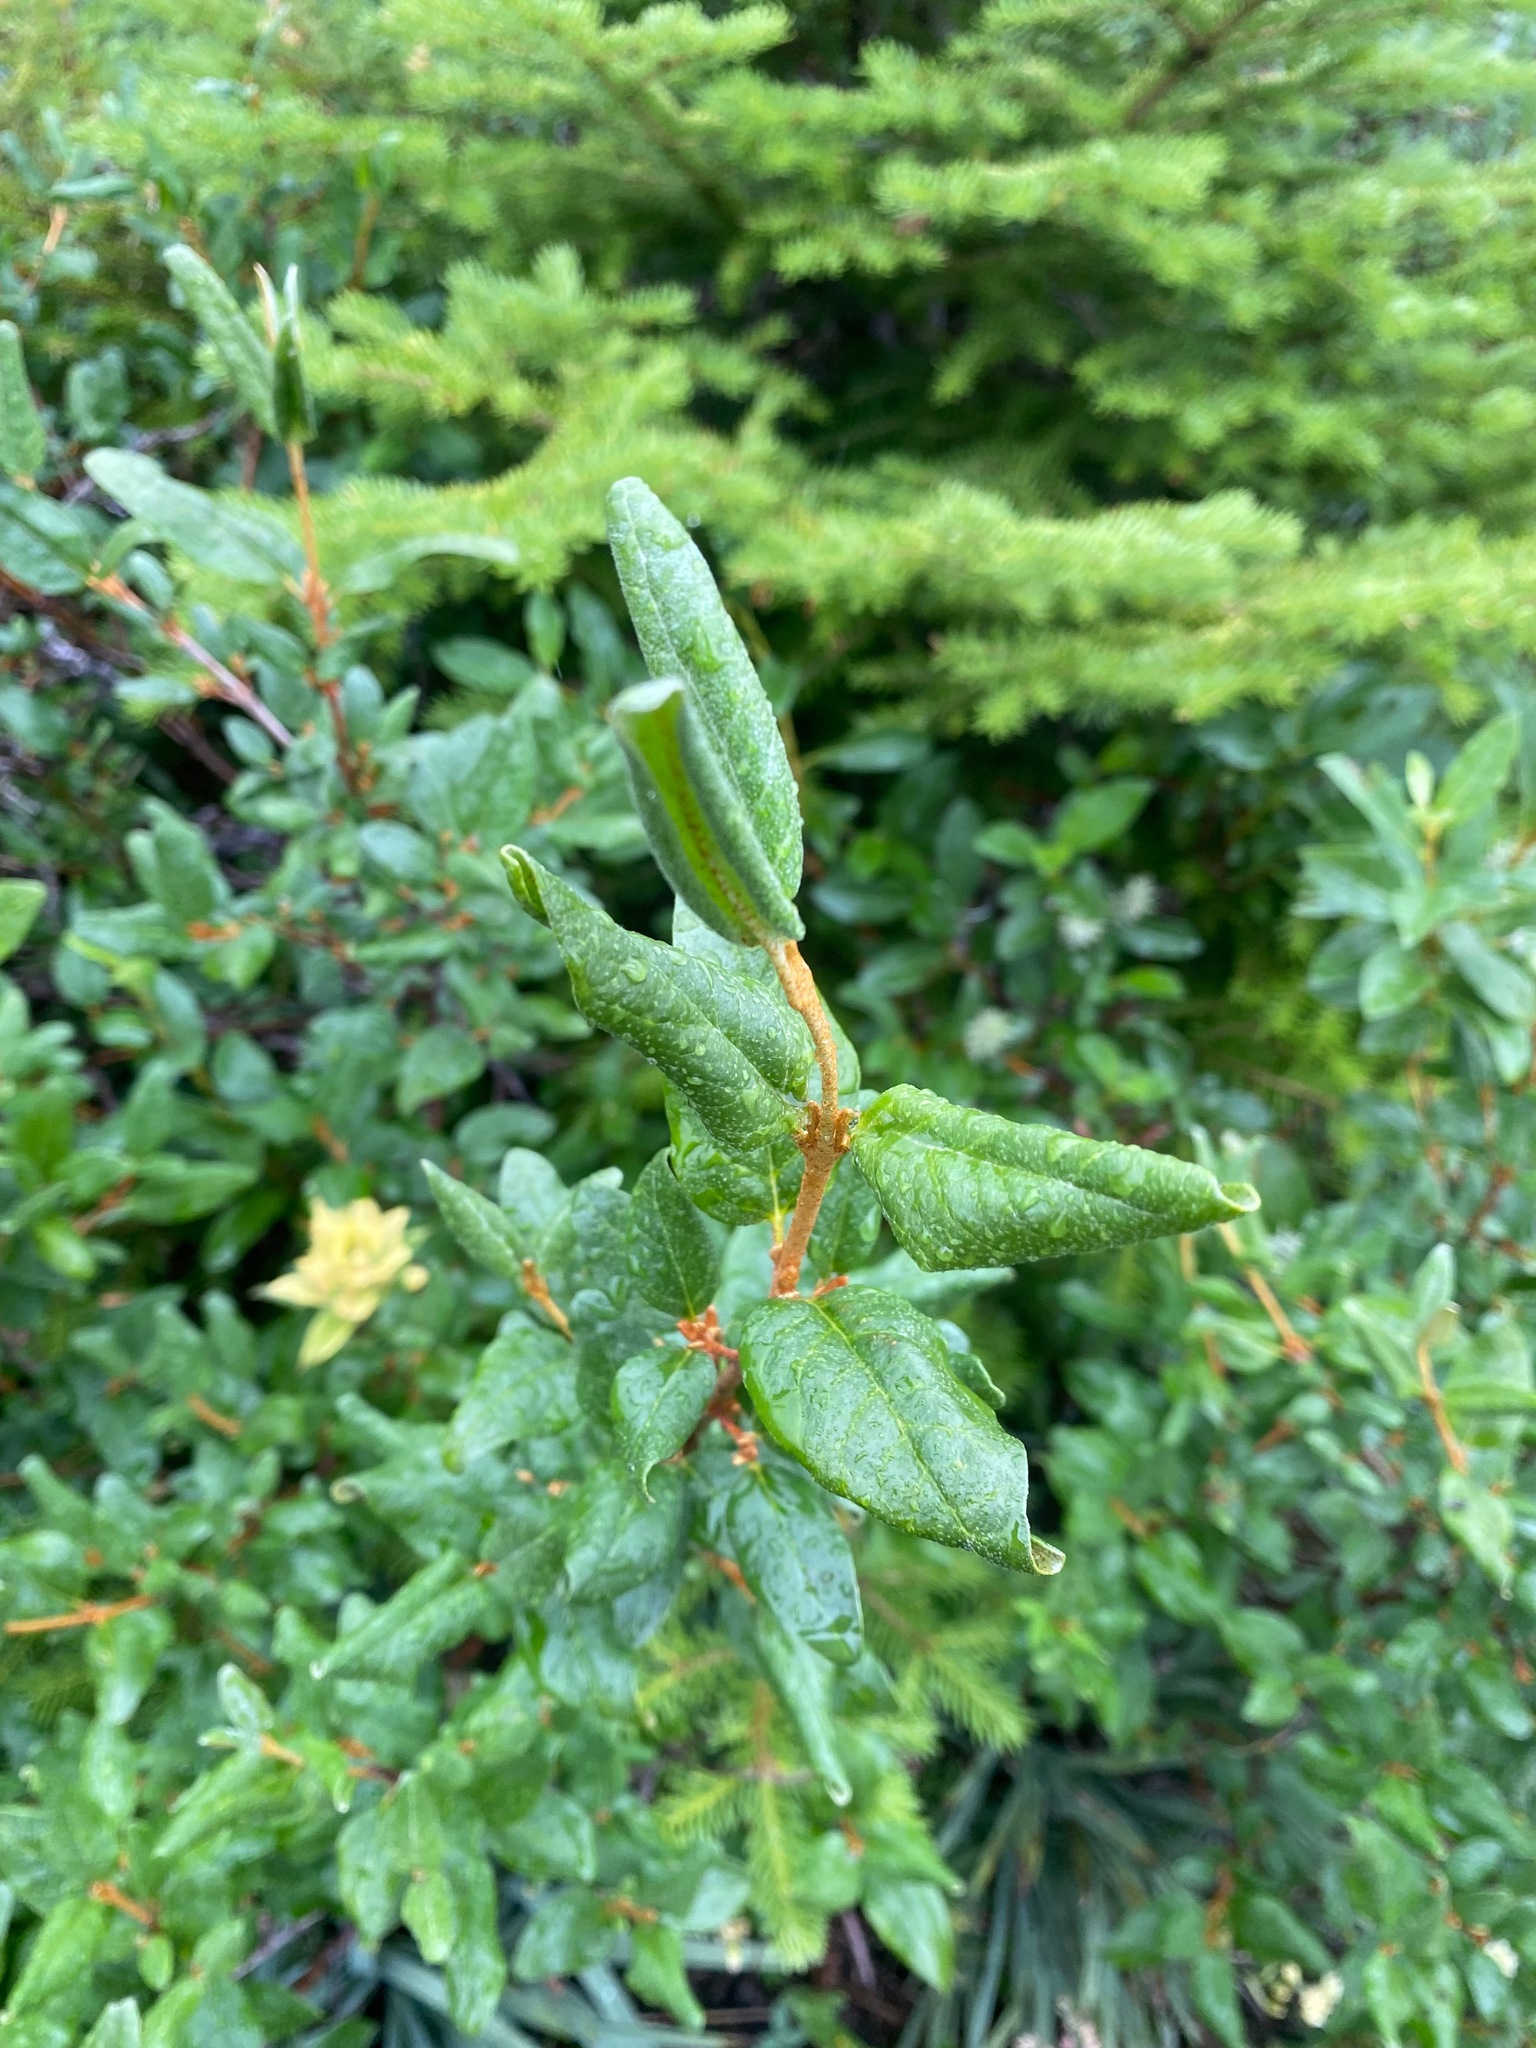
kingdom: Plantae
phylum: Tracheophyta
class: Magnoliopsida
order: Rosales
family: Elaeagnaceae
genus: Shepherdia
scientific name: Shepherdia canadensis
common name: Soapberry
